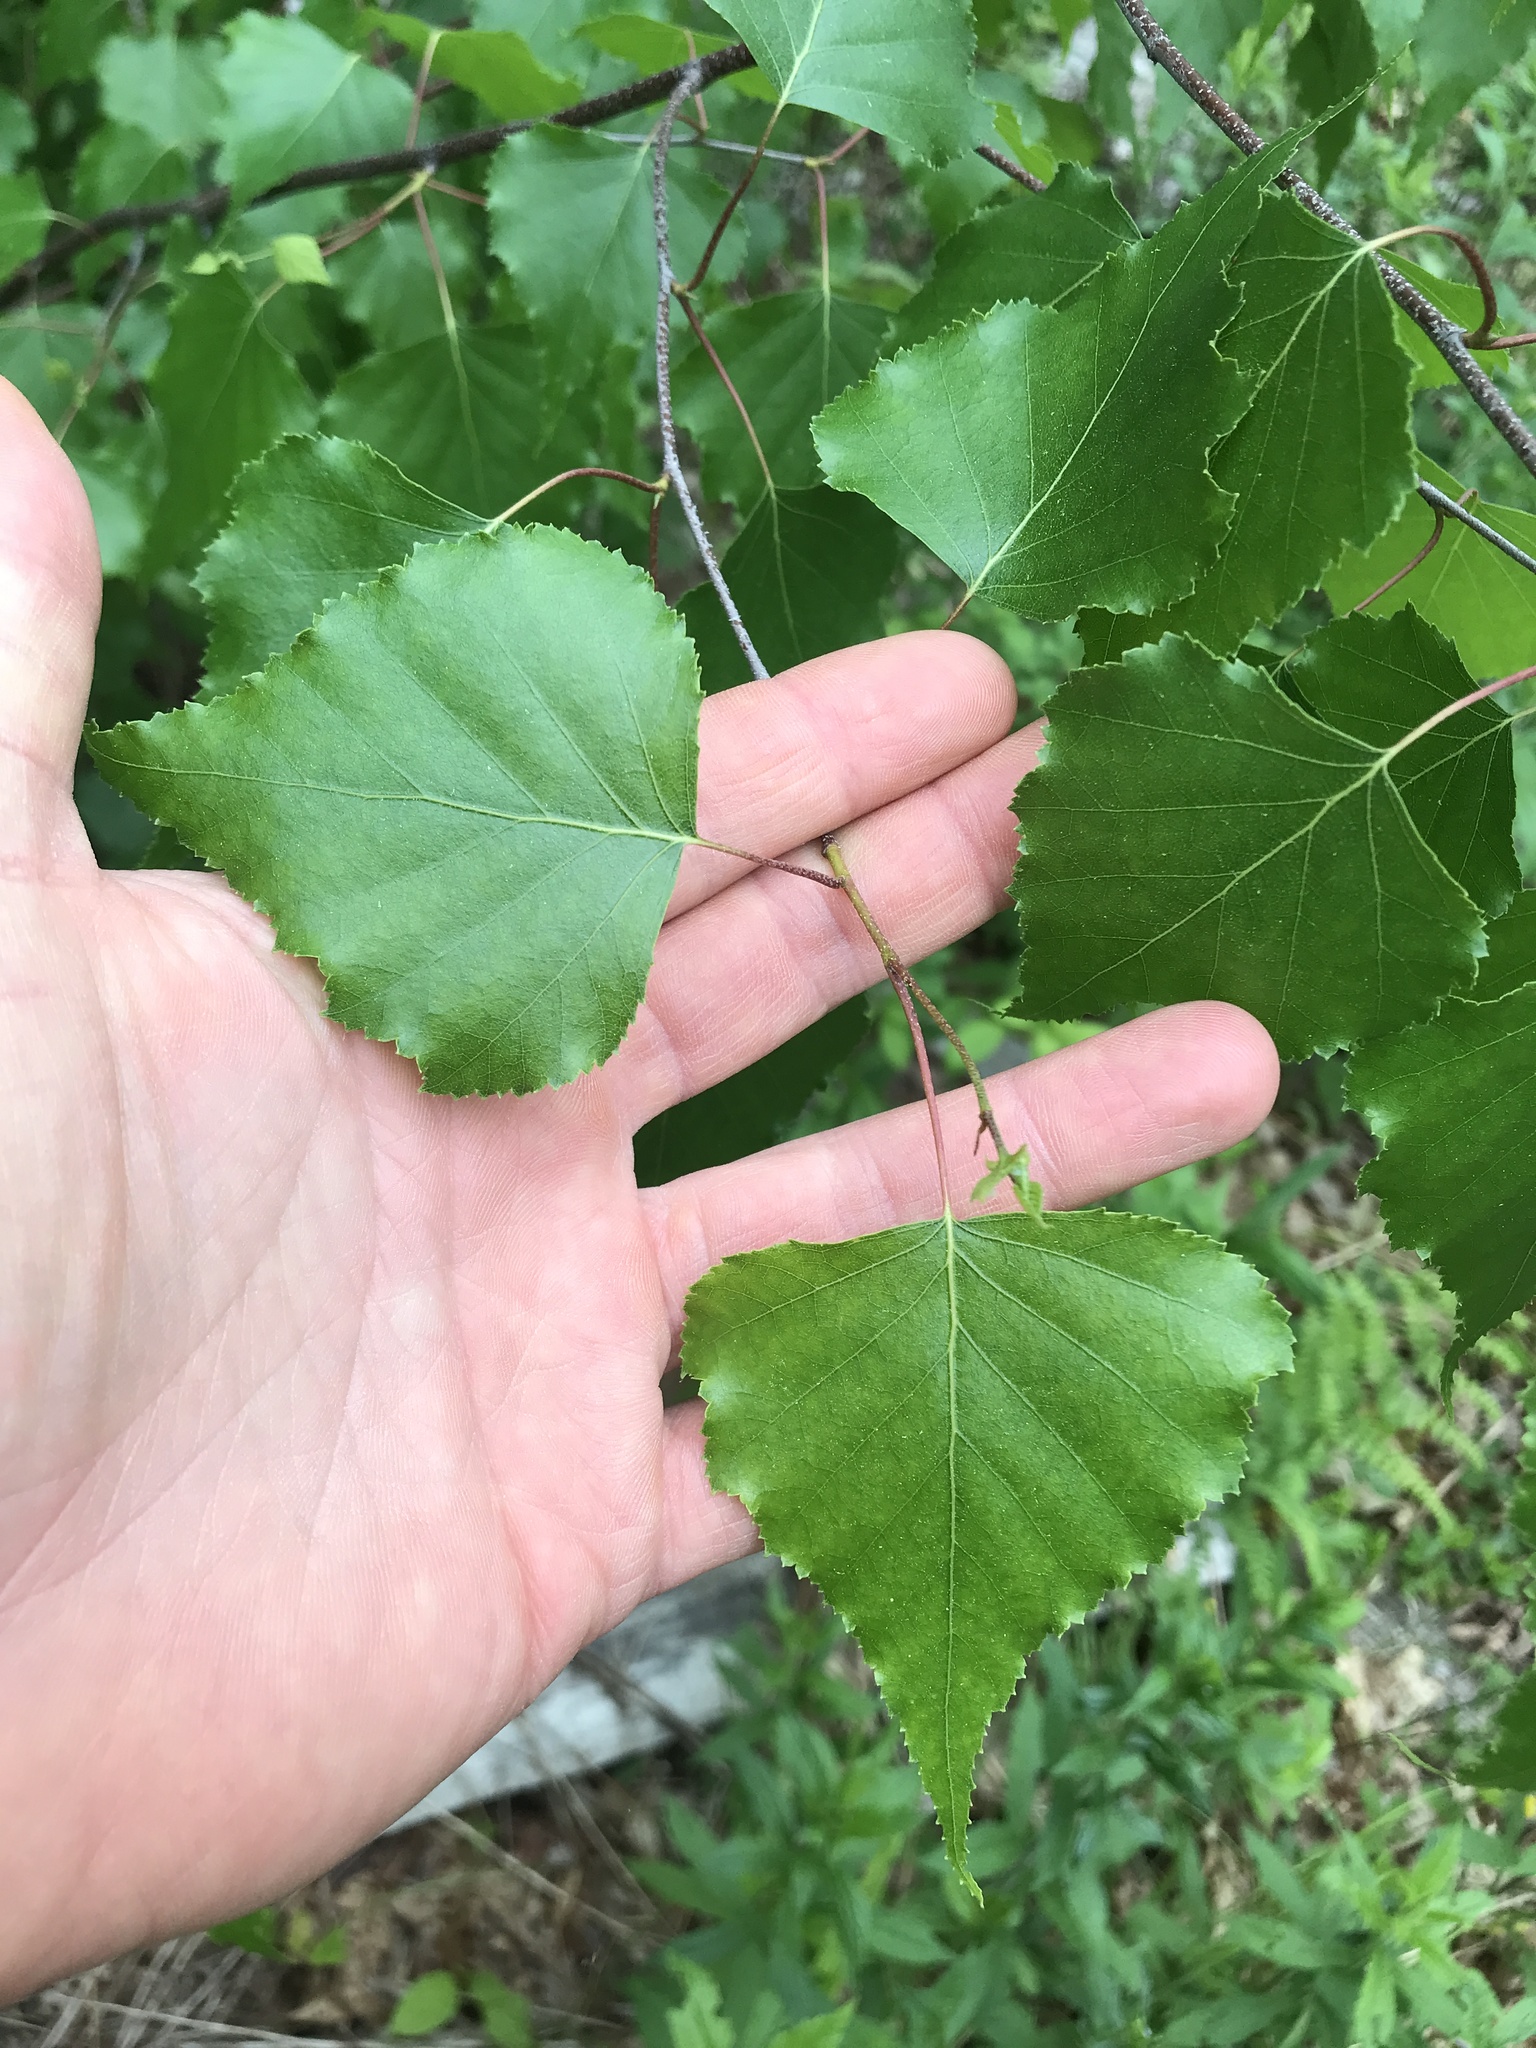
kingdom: Plantae
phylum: Tracheophyta
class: Magnoliopsida
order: Fagales
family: Betulaceae
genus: Betula
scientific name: Betula populifolia
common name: Fire birch
